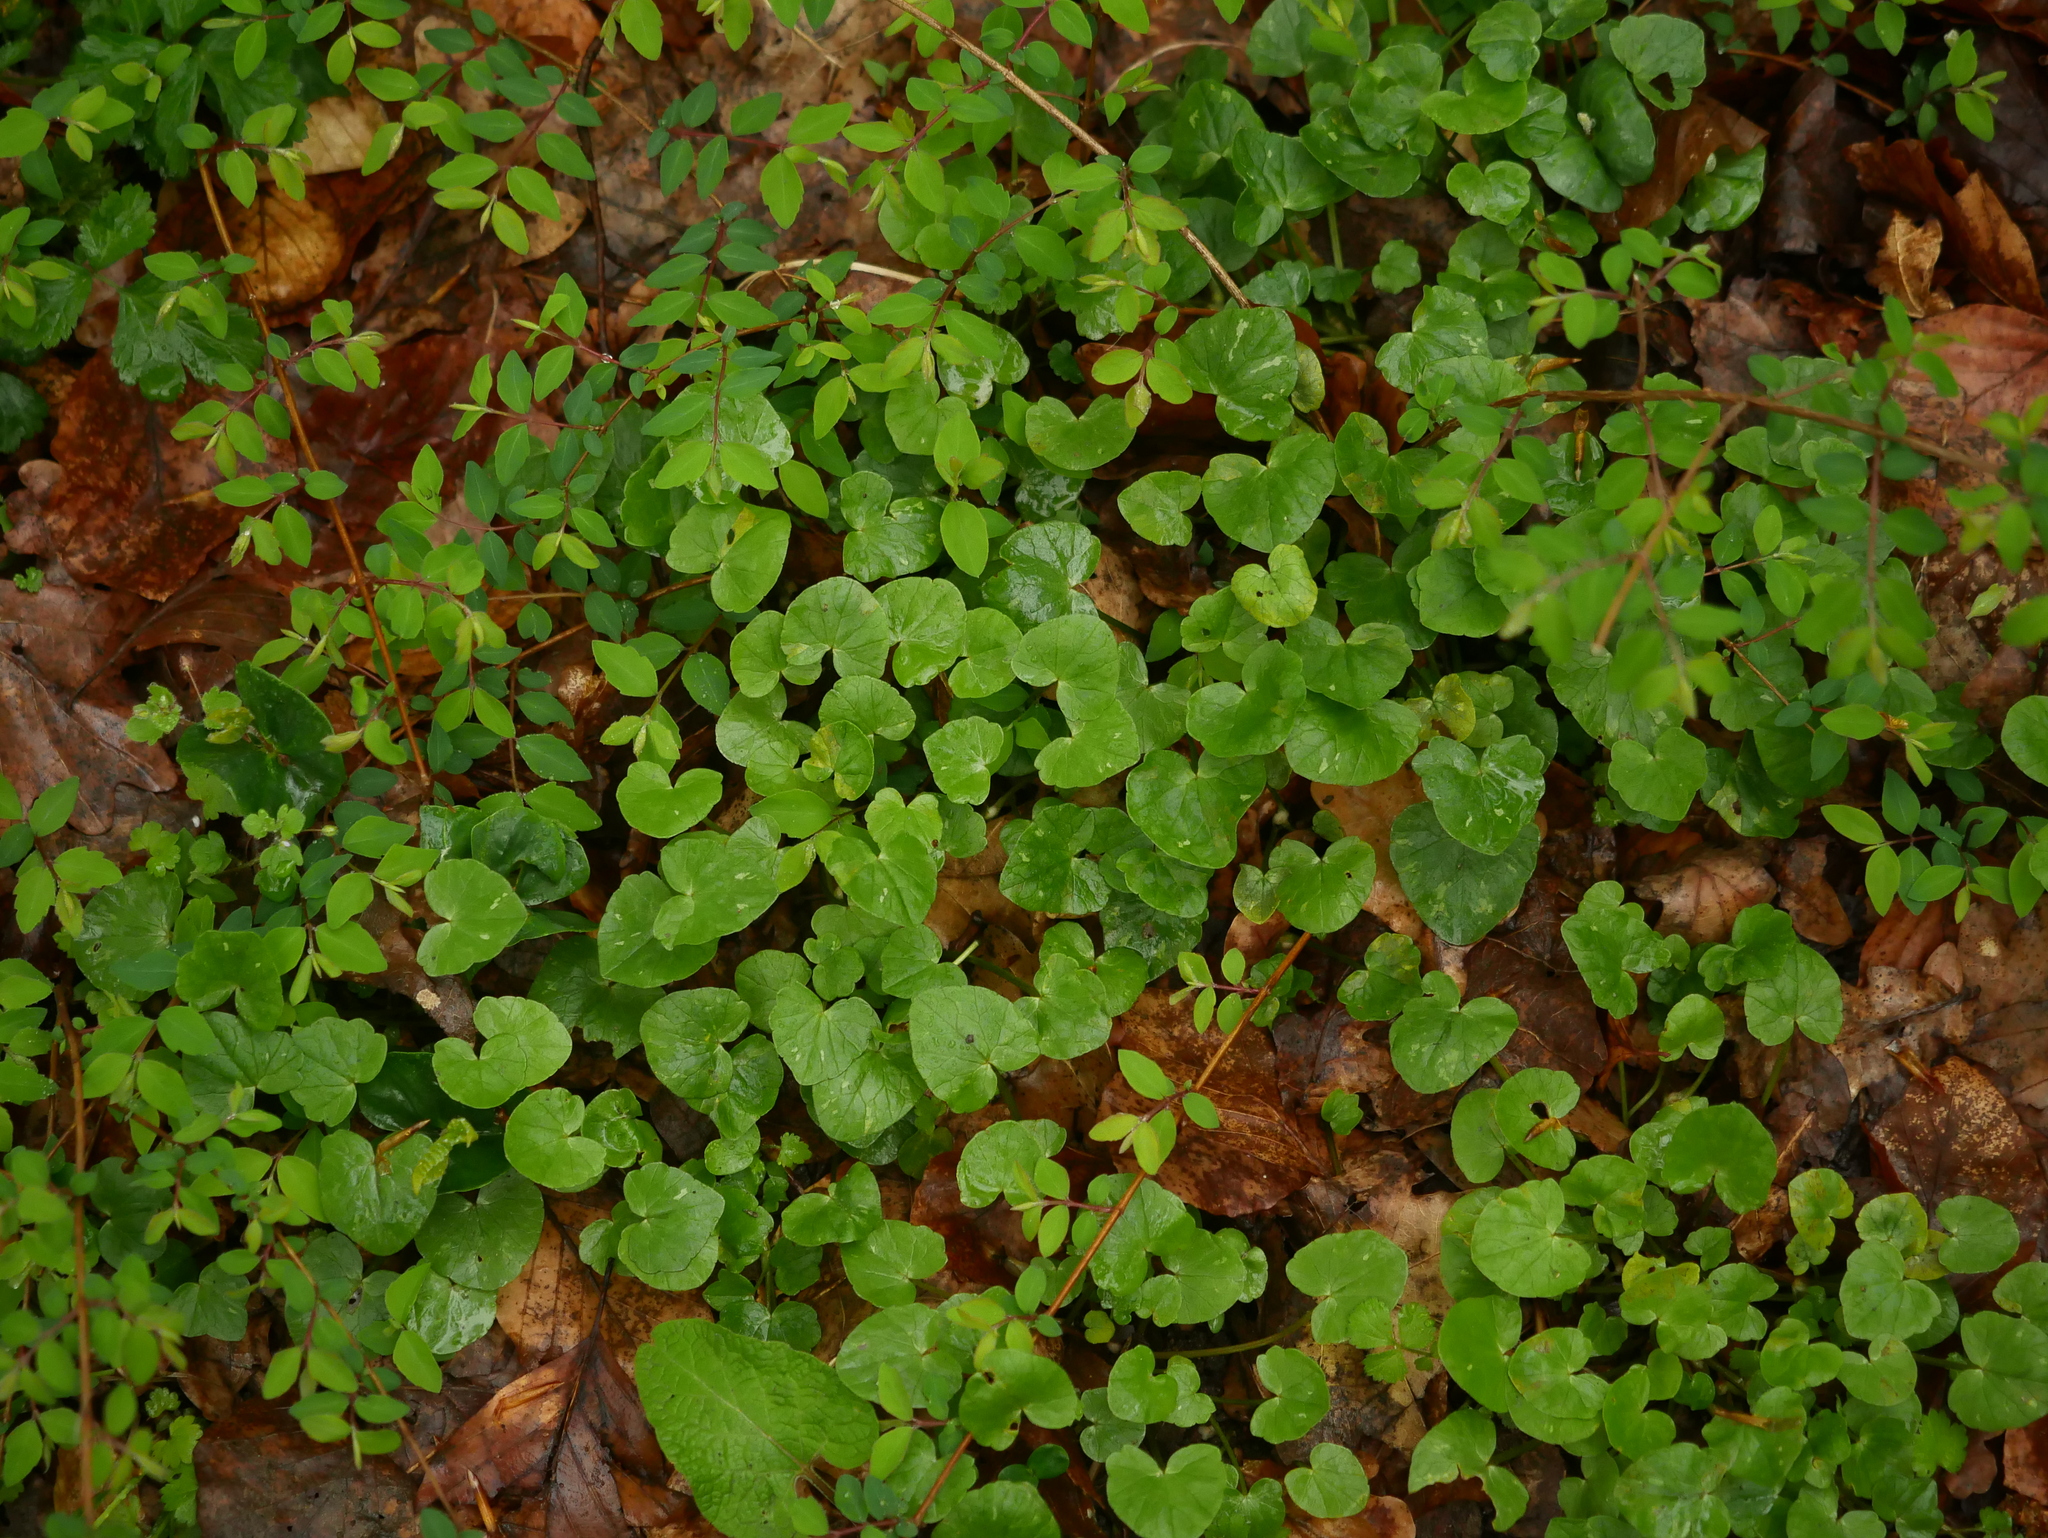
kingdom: Plantae
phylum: Tracheophyta
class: Magnoliopsida
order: Ranunculales
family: Ranunculaceae
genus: Ficaria
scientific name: Ficaria verna
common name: Lesser celandine
